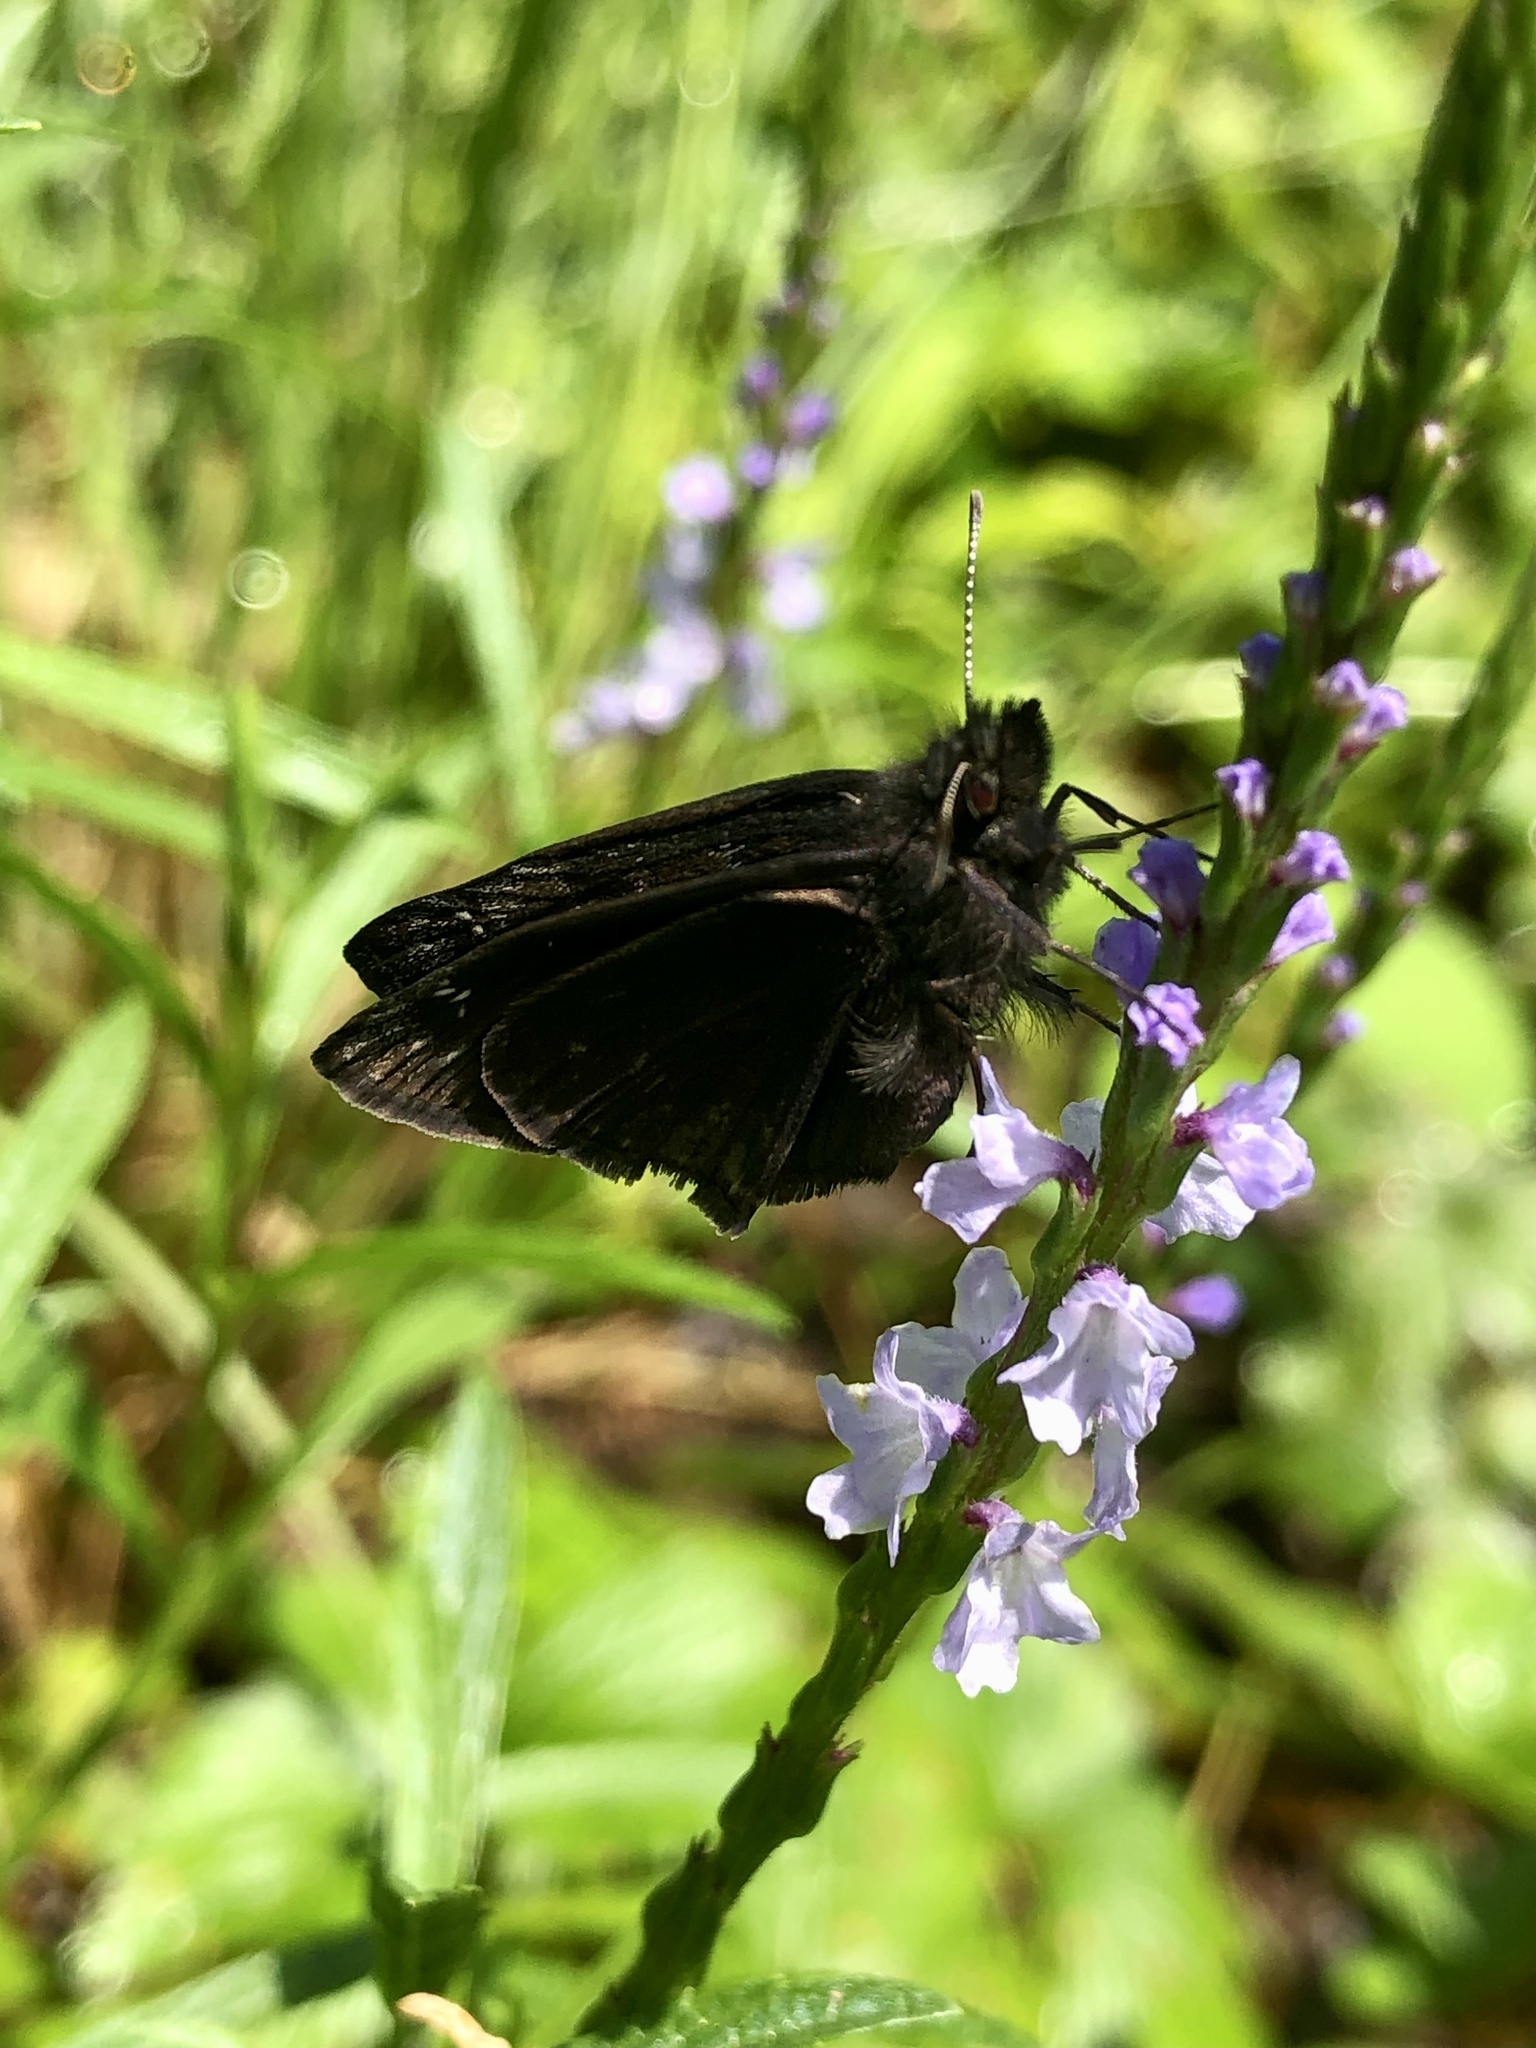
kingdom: Animalia
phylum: Arthropoda
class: Insecta
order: Lepidoptera
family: Hesperiidae
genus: Erynnis
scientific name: Erynnis baptisiae
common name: Wild indigo duskywing
